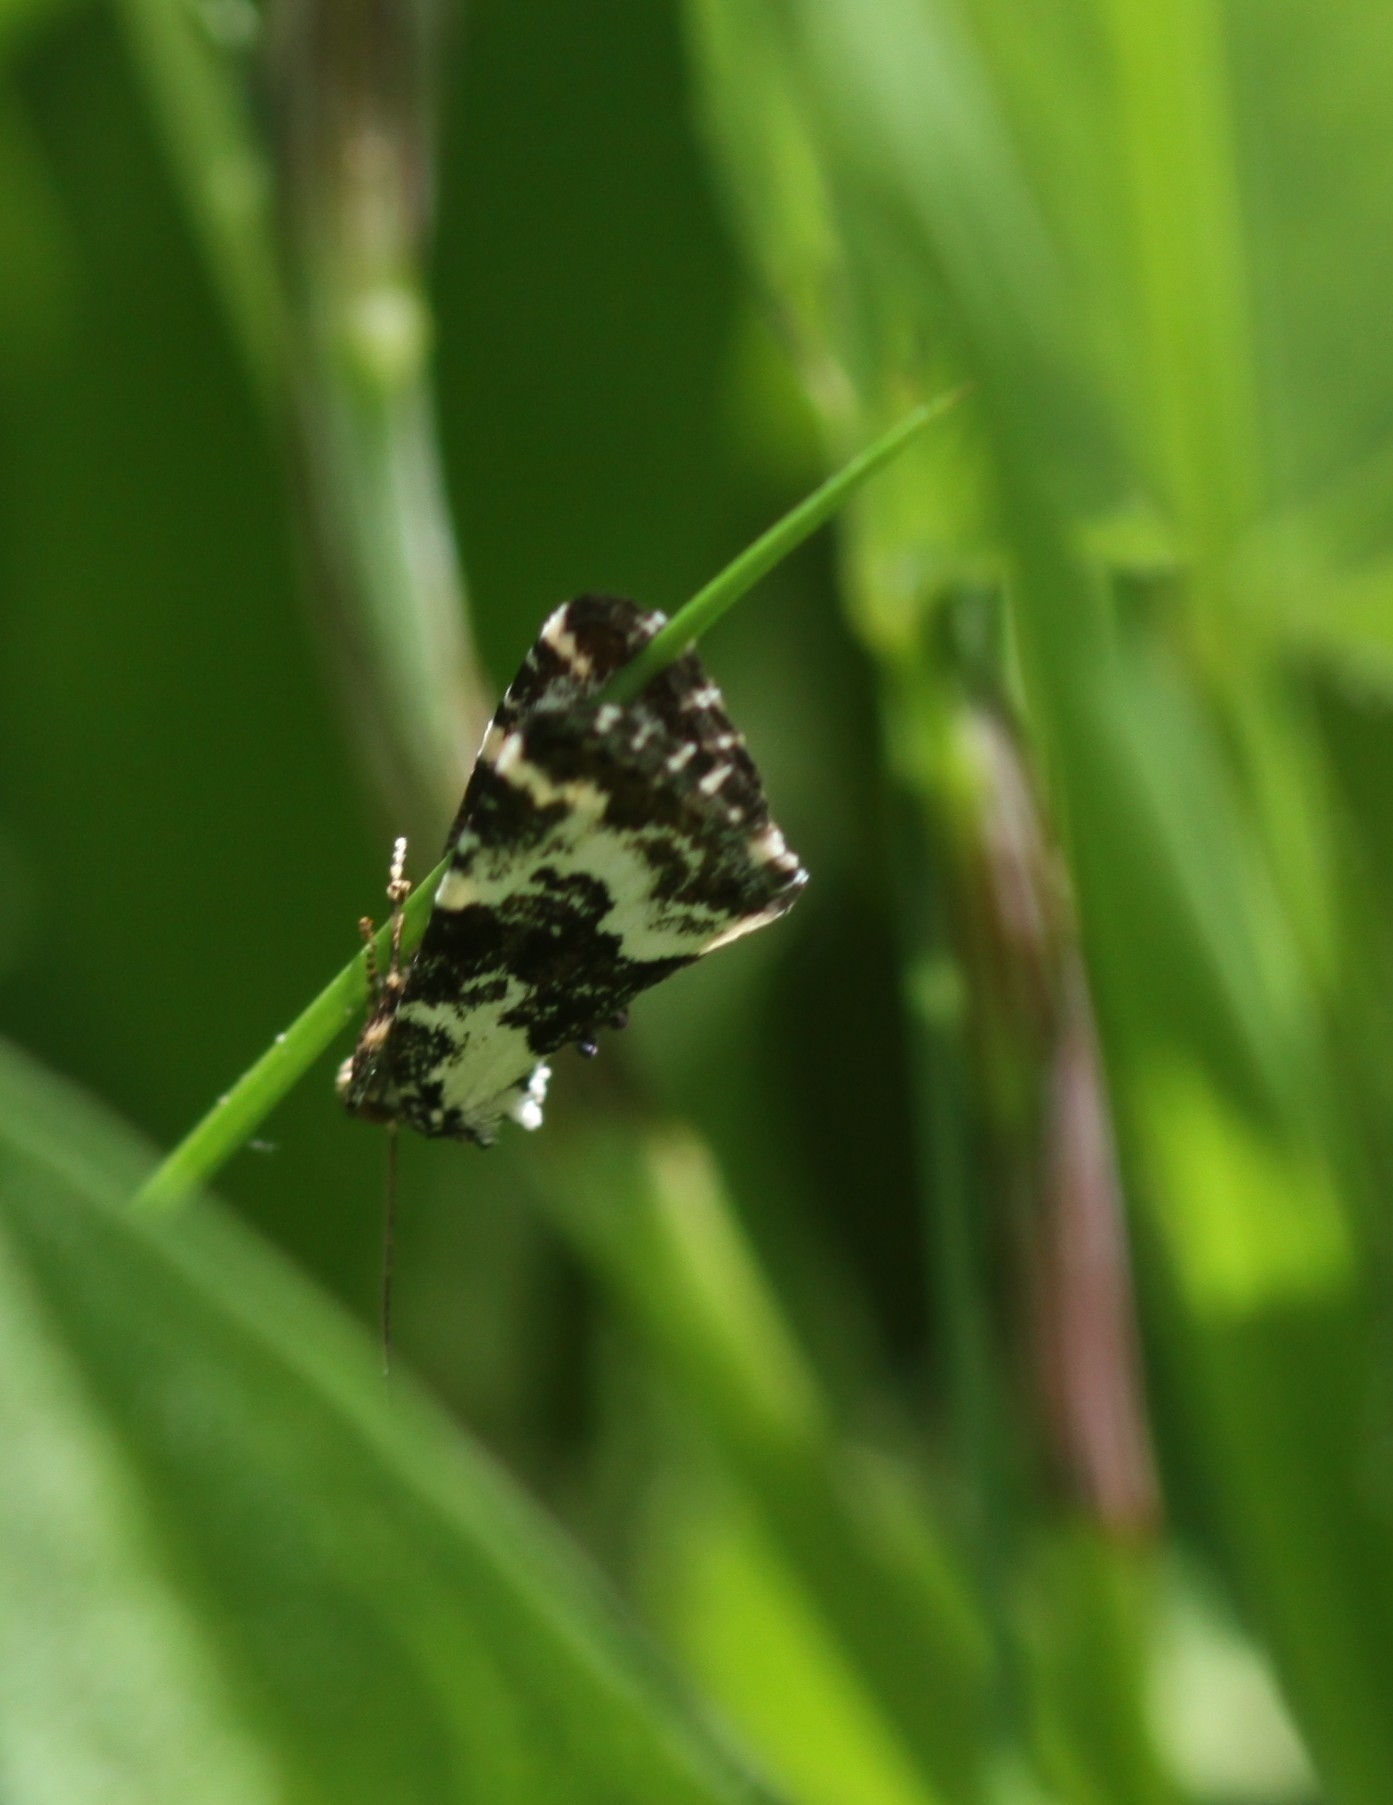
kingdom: Animalia
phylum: Arthropoda
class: Insecta
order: Lepidoptera
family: Noctuidae
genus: Deltote
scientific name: Deltote deceptoria
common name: Pretty marbled
